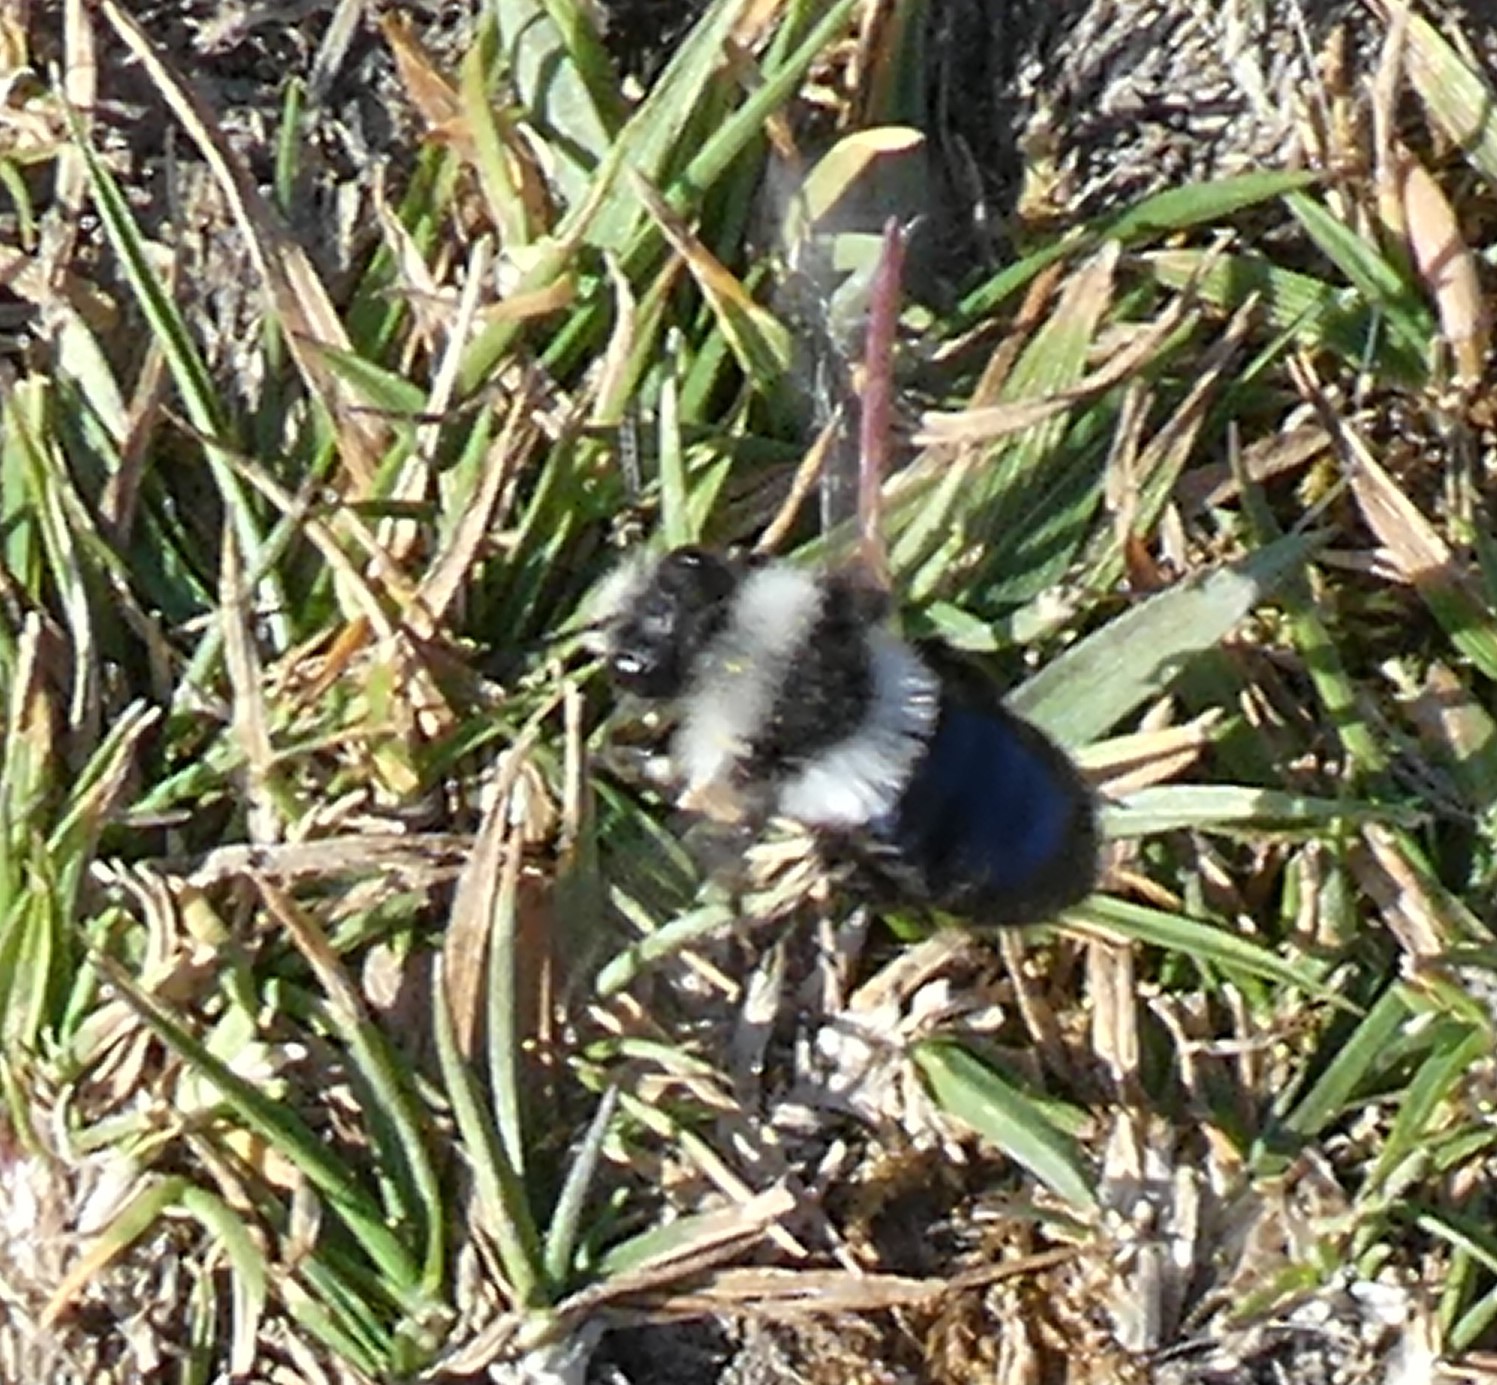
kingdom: Animalia
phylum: Arthropoda
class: Insecta
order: Hymenoptera
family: Andrenidae
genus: Andrena
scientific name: Andrena cineraria
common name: Ashy mining bee
